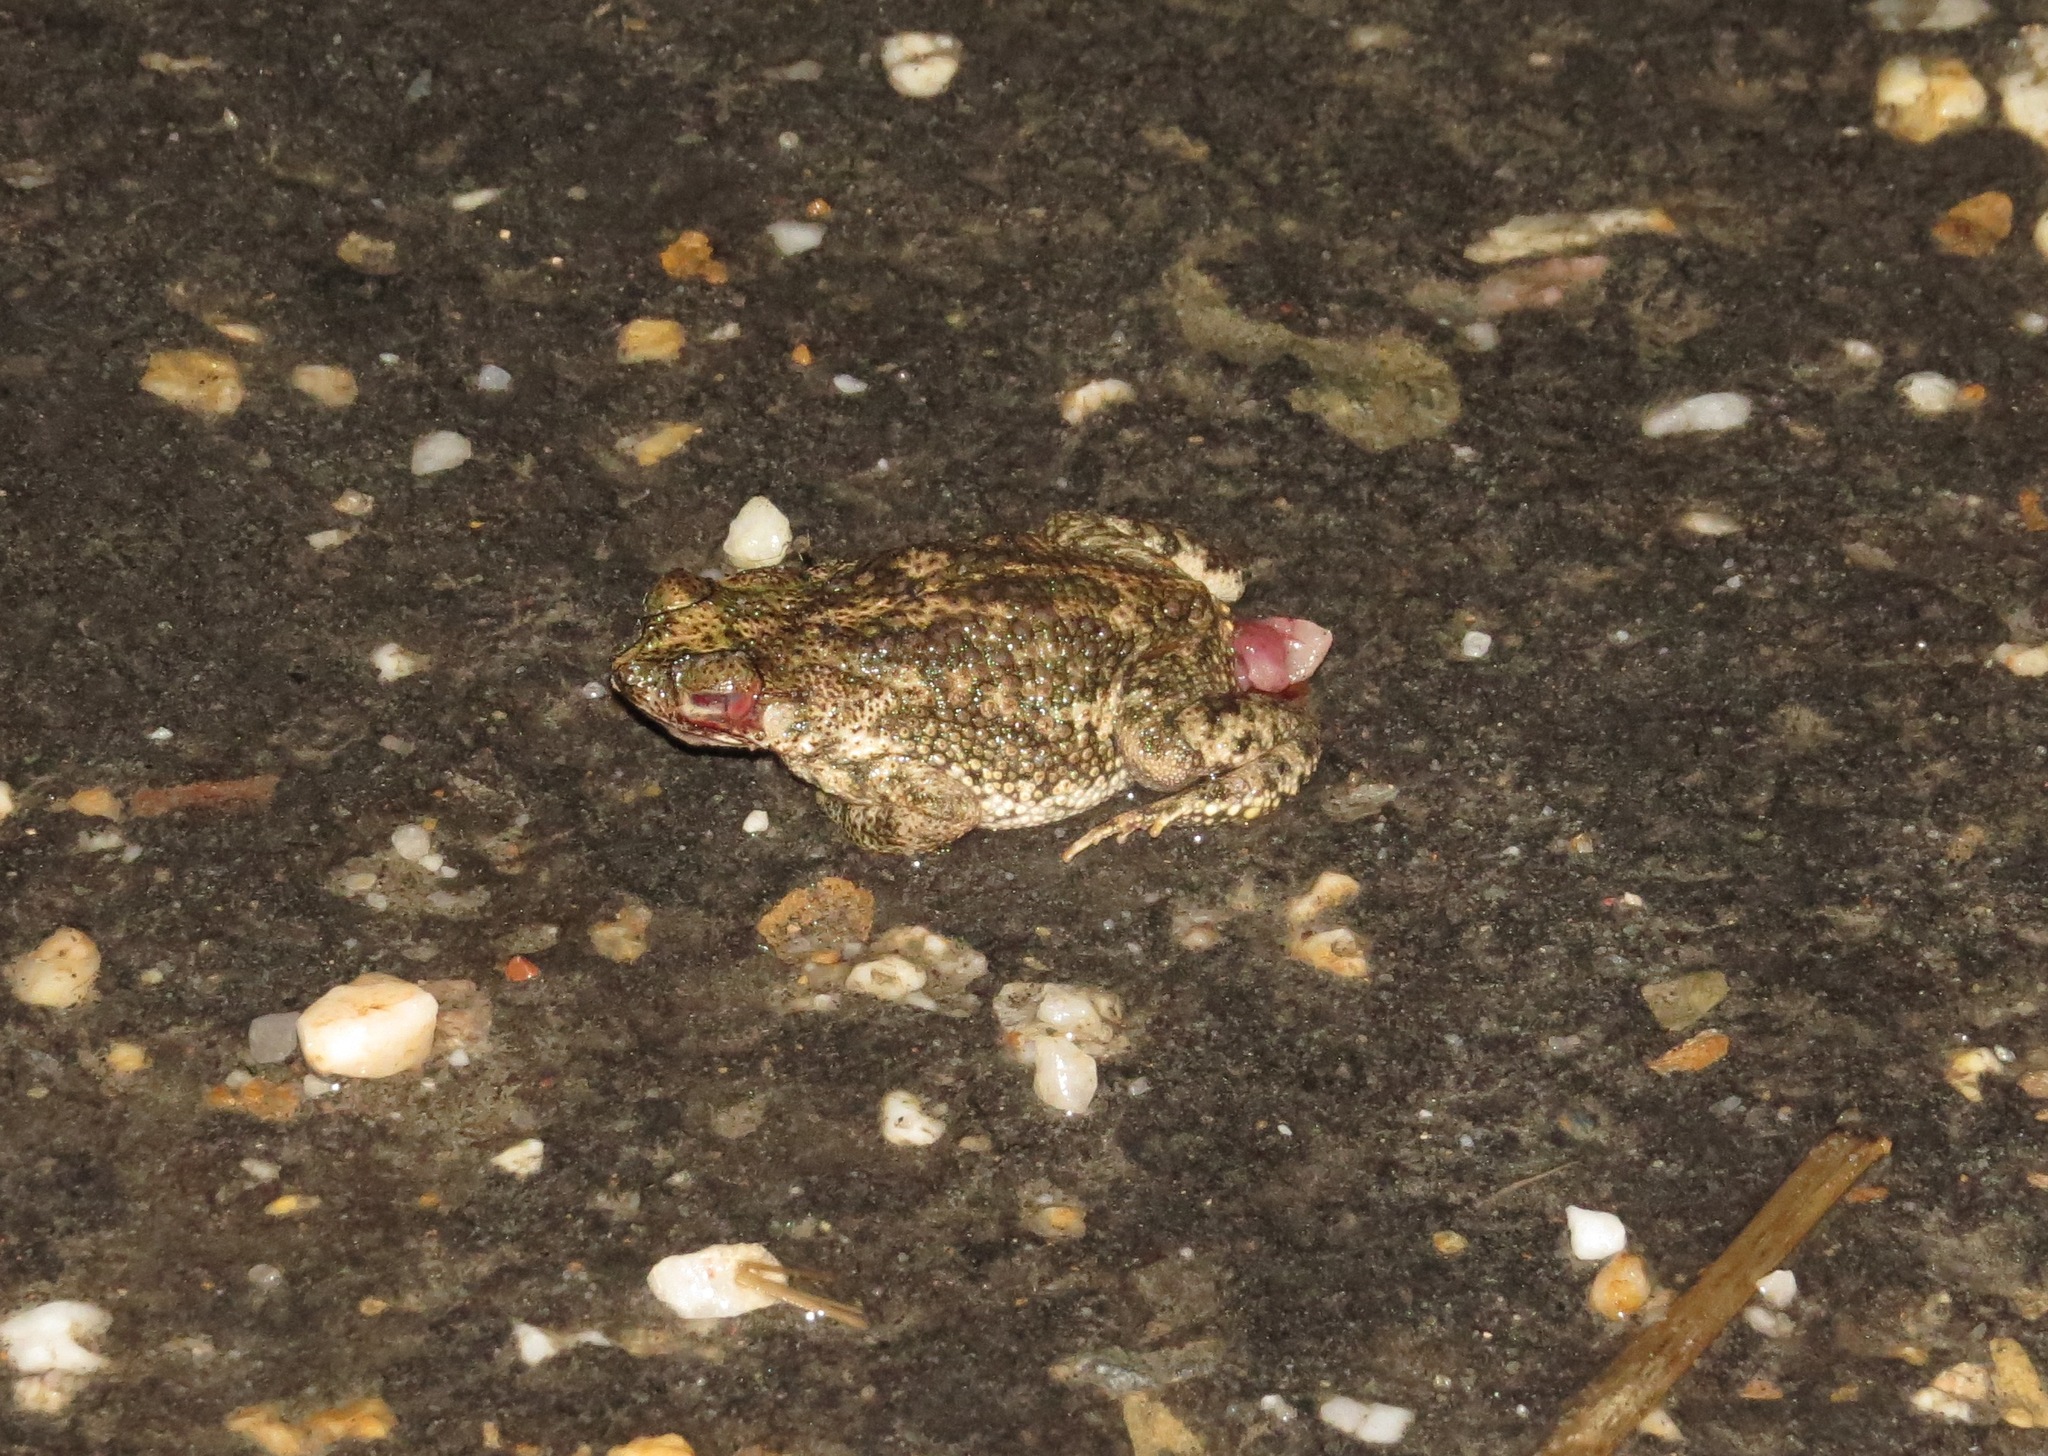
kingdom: Animalia
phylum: Chordata
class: Amphibia
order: Anura
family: Bufonidae
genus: Rhinella
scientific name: Rhinella beebei
